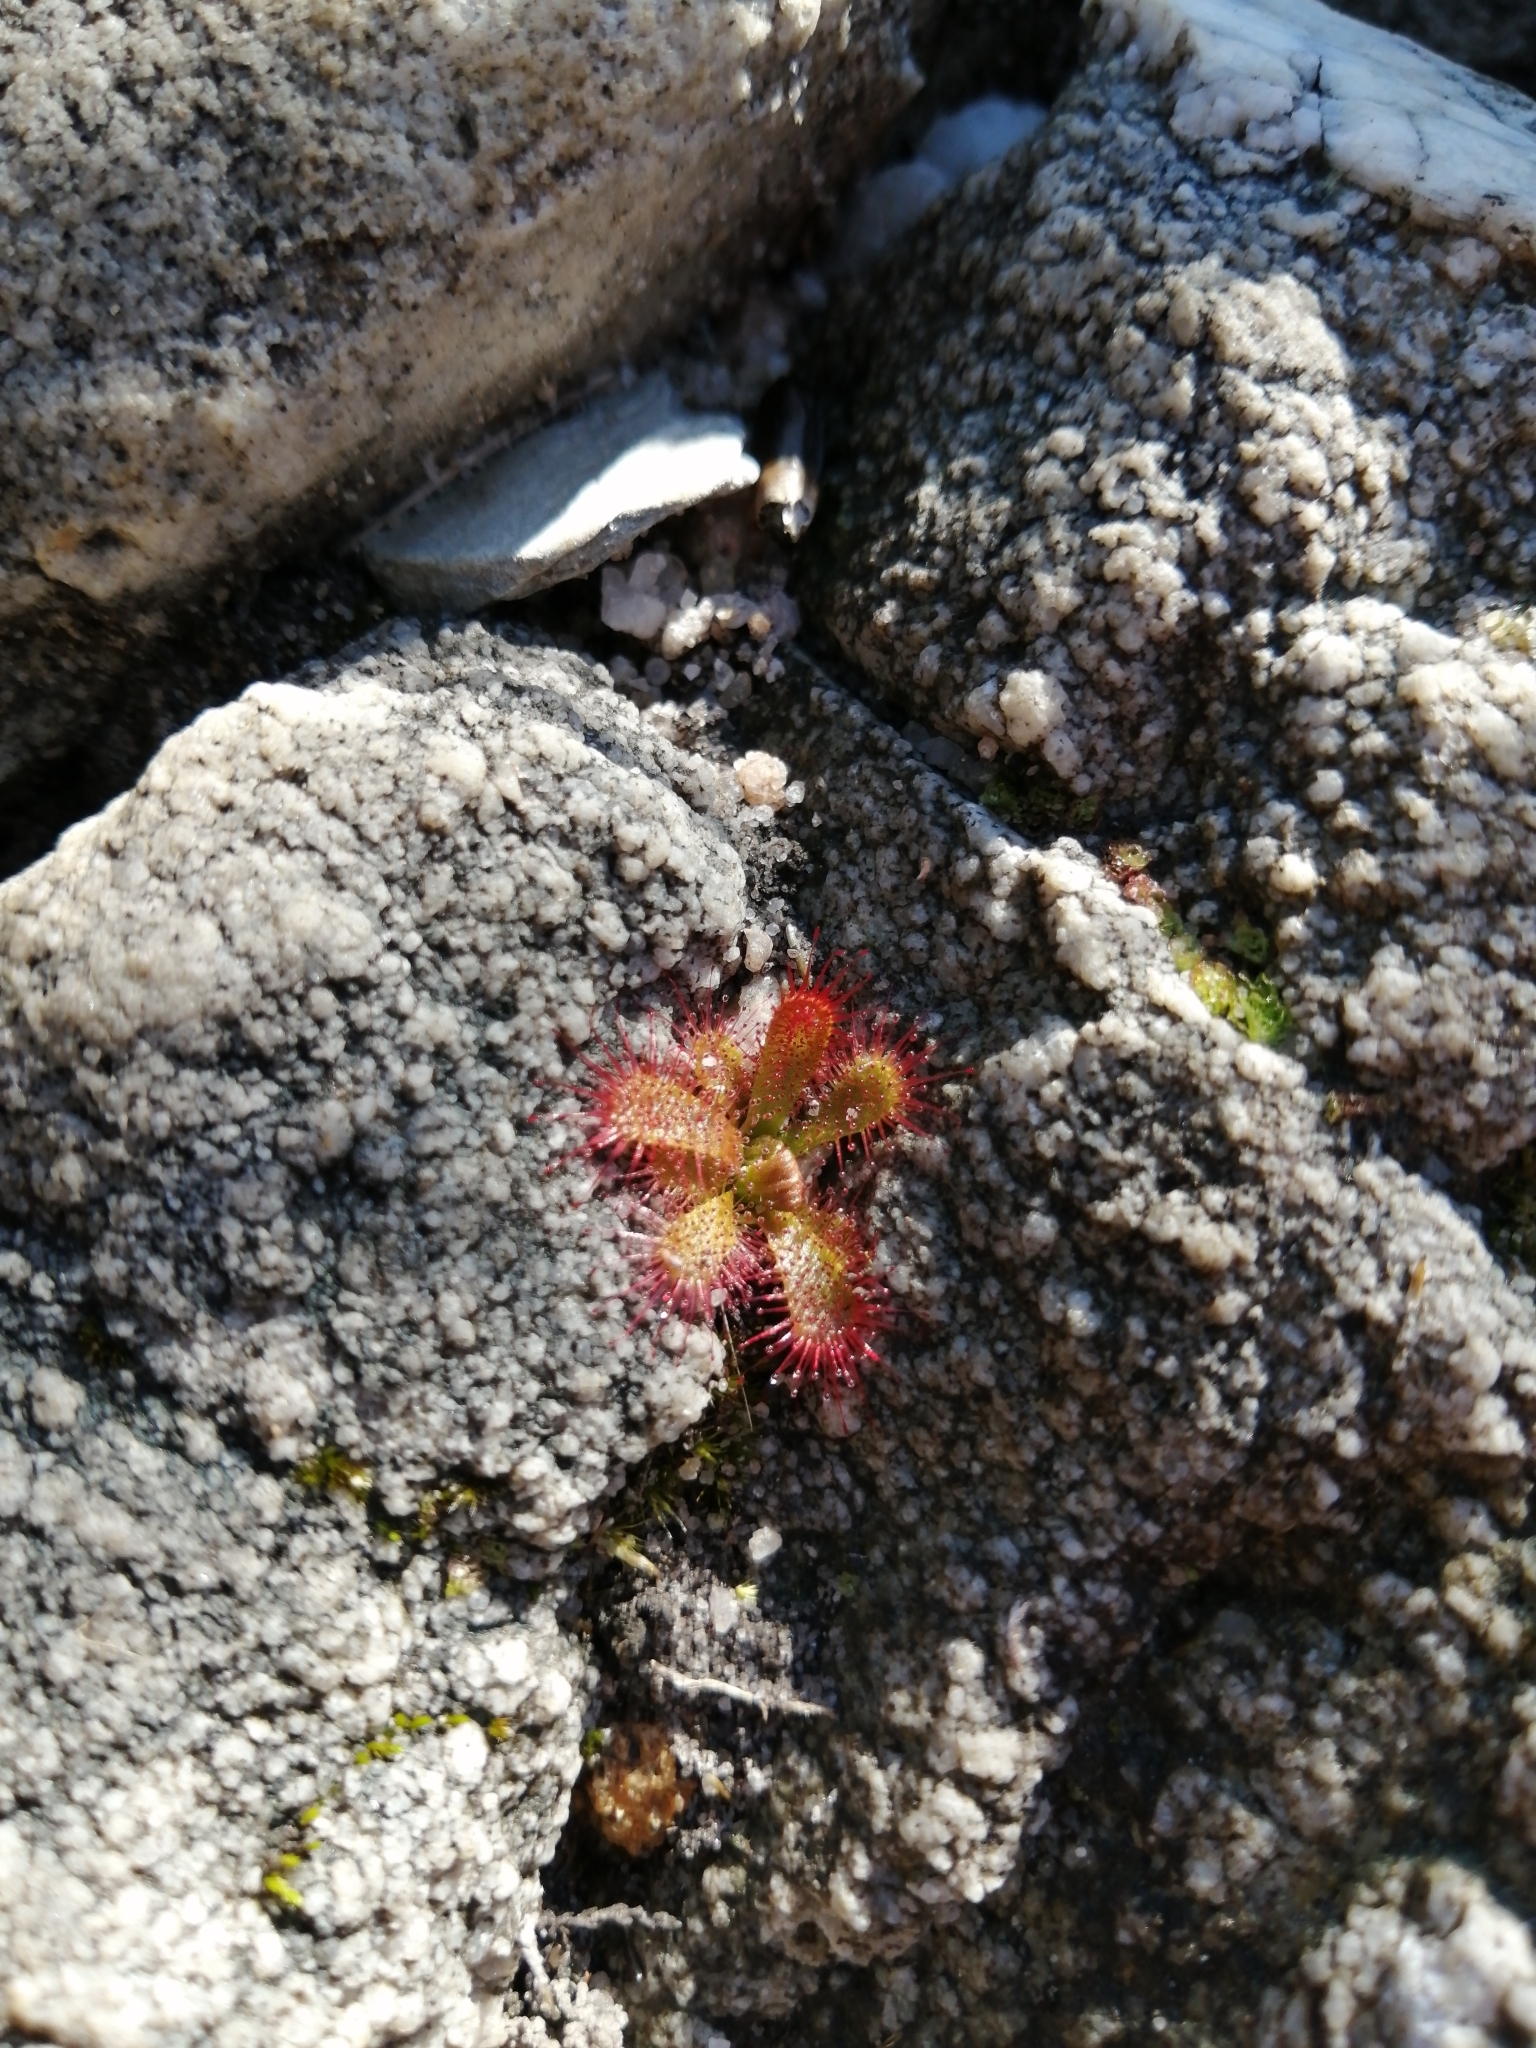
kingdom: Plantae
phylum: Tracheophyta
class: Magnoliopsida
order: Caryophyllales
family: Droseraceae
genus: Drosera
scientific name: Drosera trinervia
